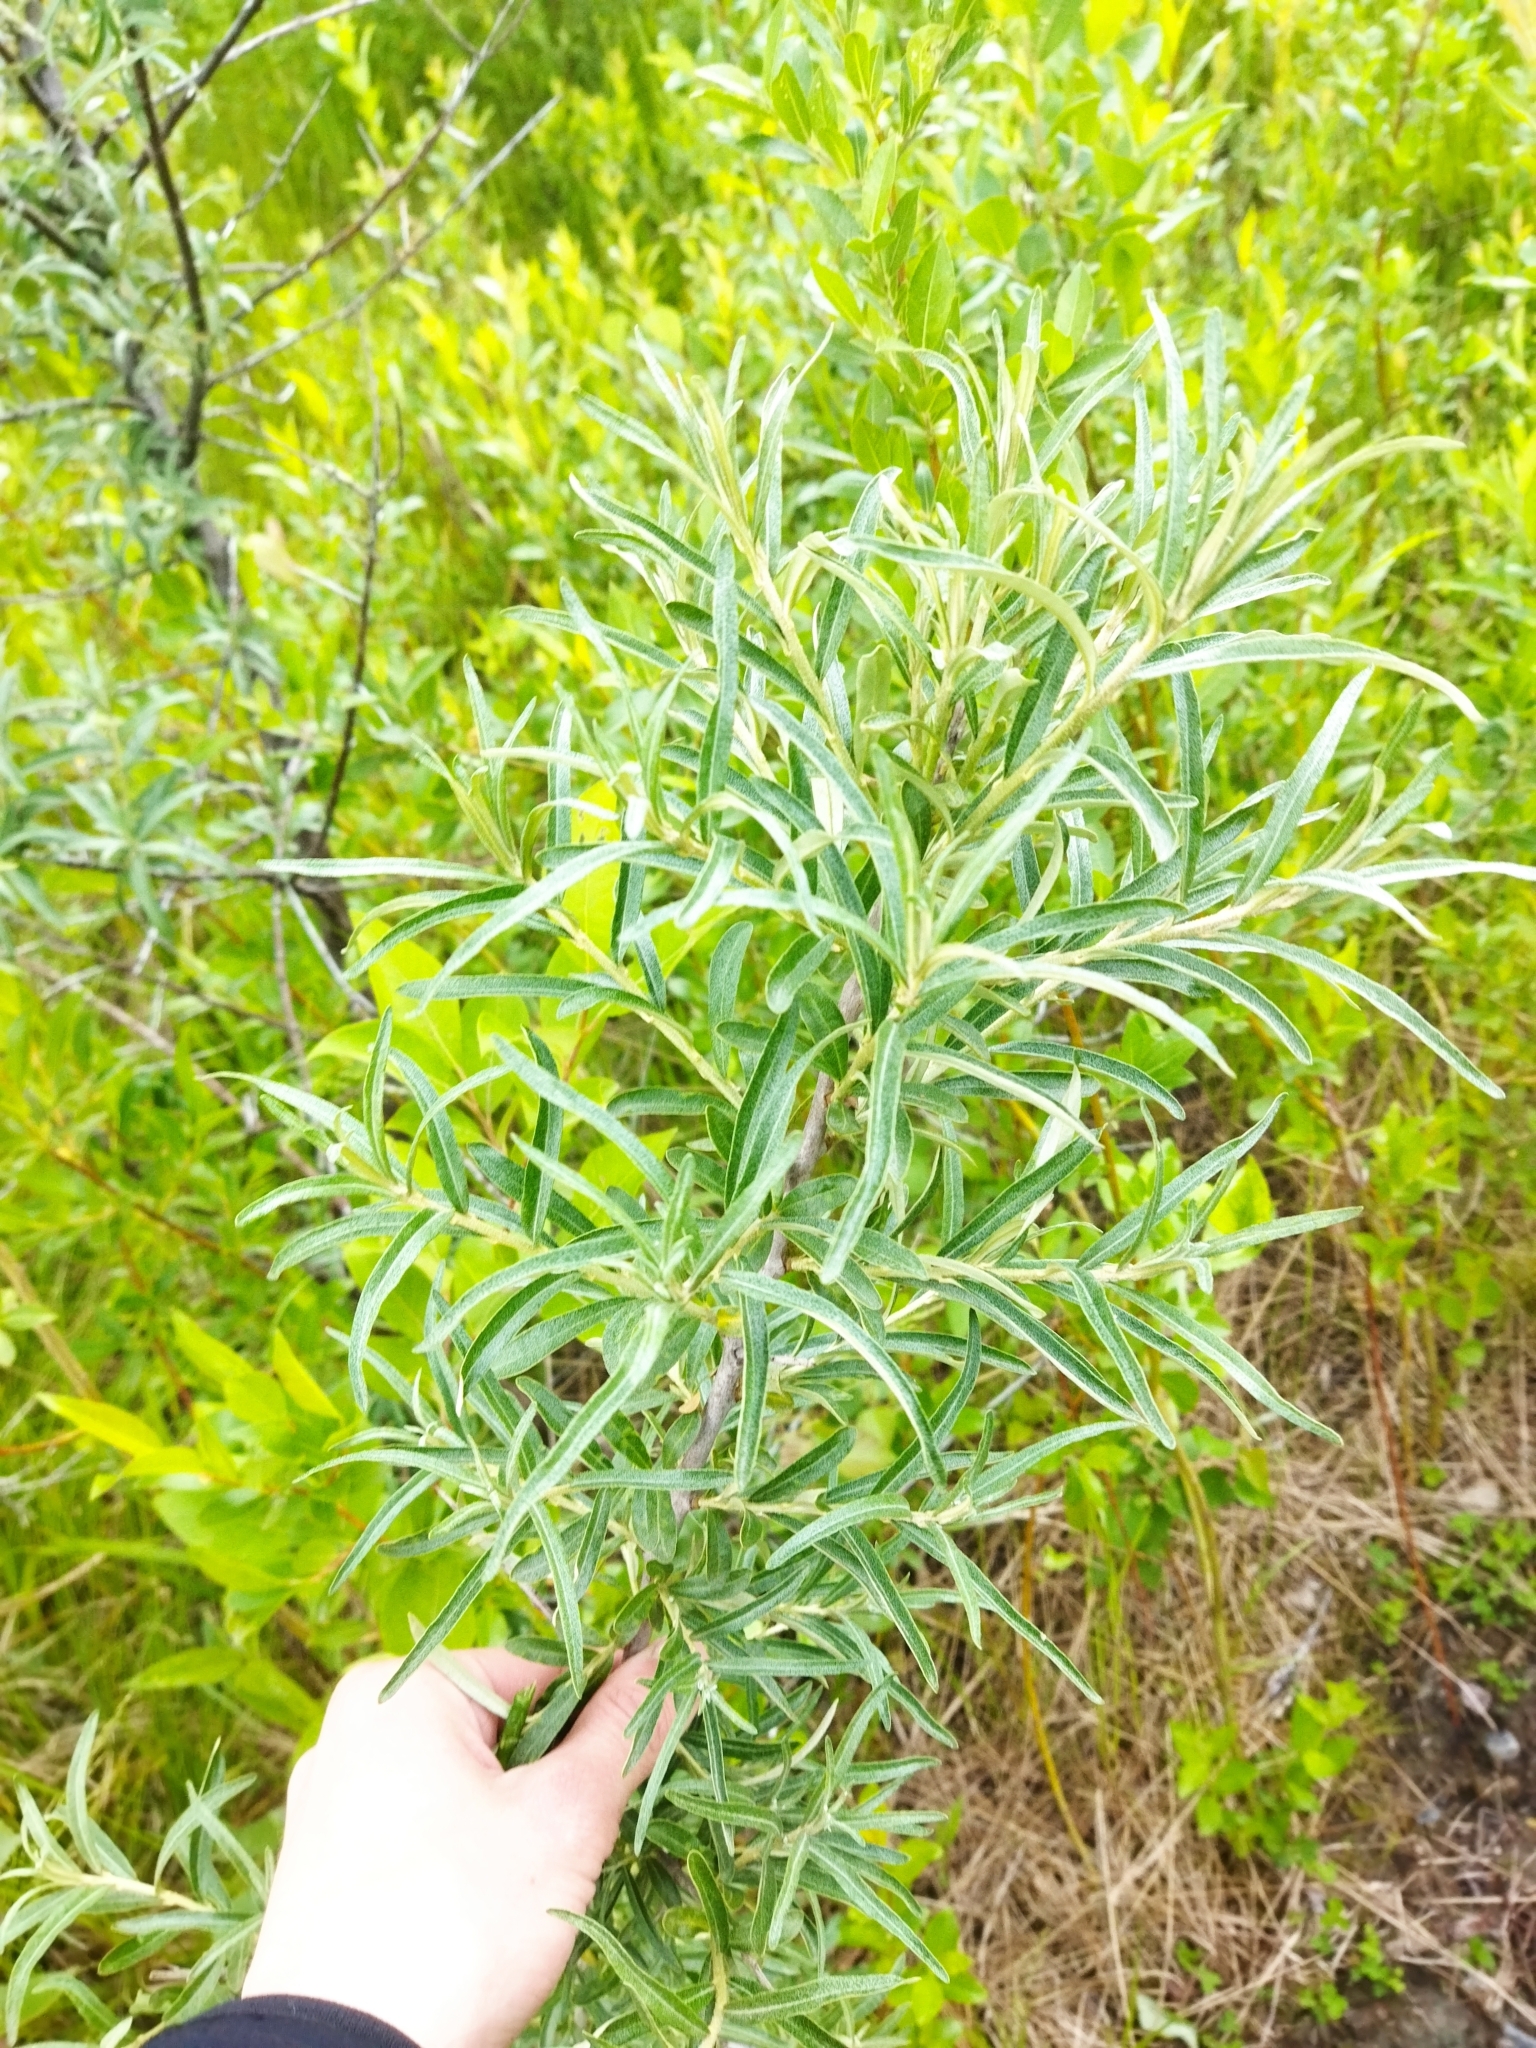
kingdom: Plantae
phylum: Tracheophyta
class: Magnoliopsida
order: Rosales
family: Elaeagnaceae
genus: Hippophae
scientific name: Hippophae rhamnoides
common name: Sea-buckthorn
